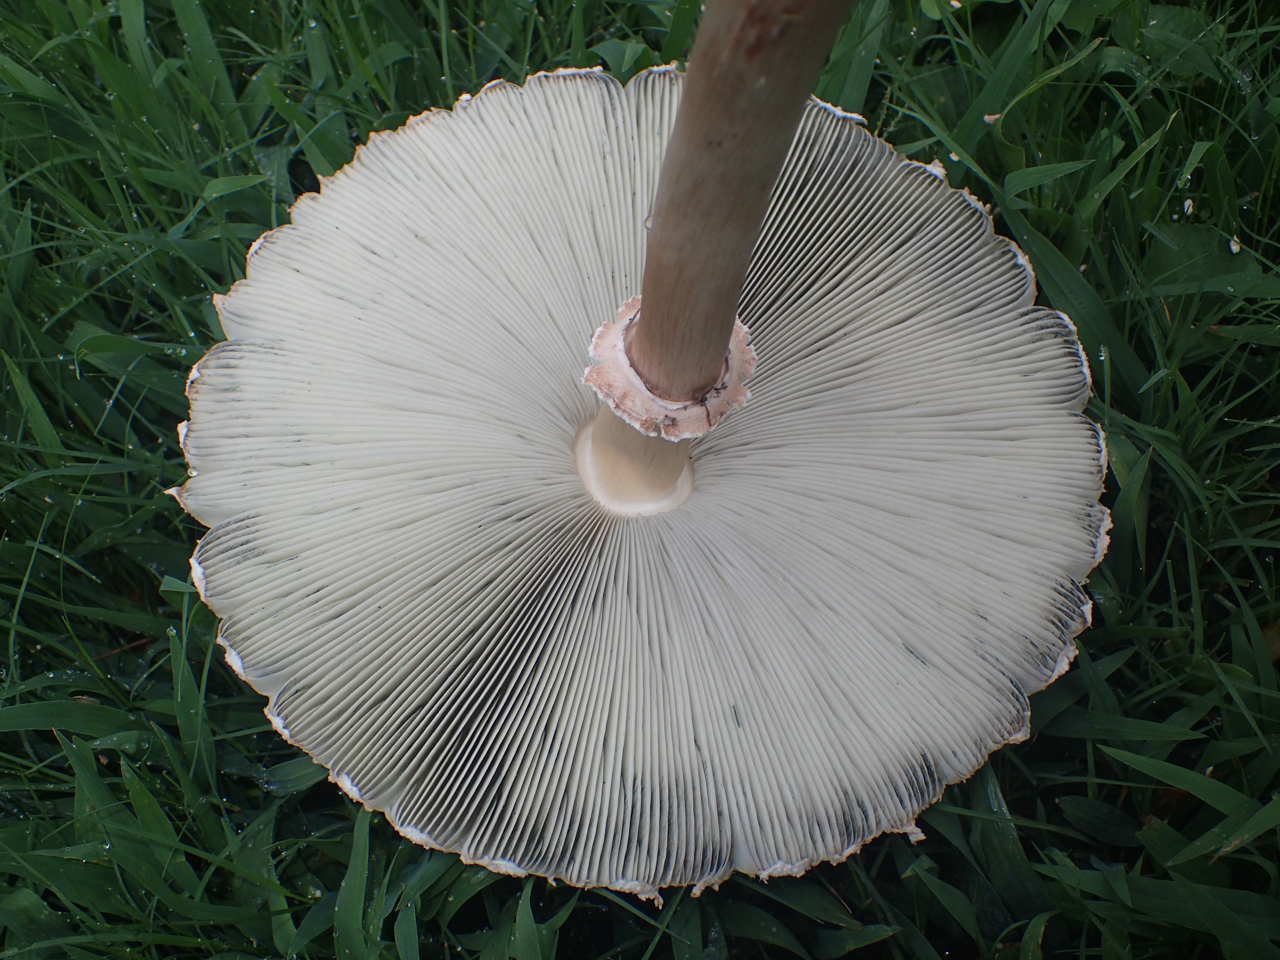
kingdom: Fungi
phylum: Basidiomycota
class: Agaricomycetes
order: Agaricales
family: Agaricaceae
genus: Chlorophyllum
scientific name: Chlorophyllum molybdites
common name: False parasol
